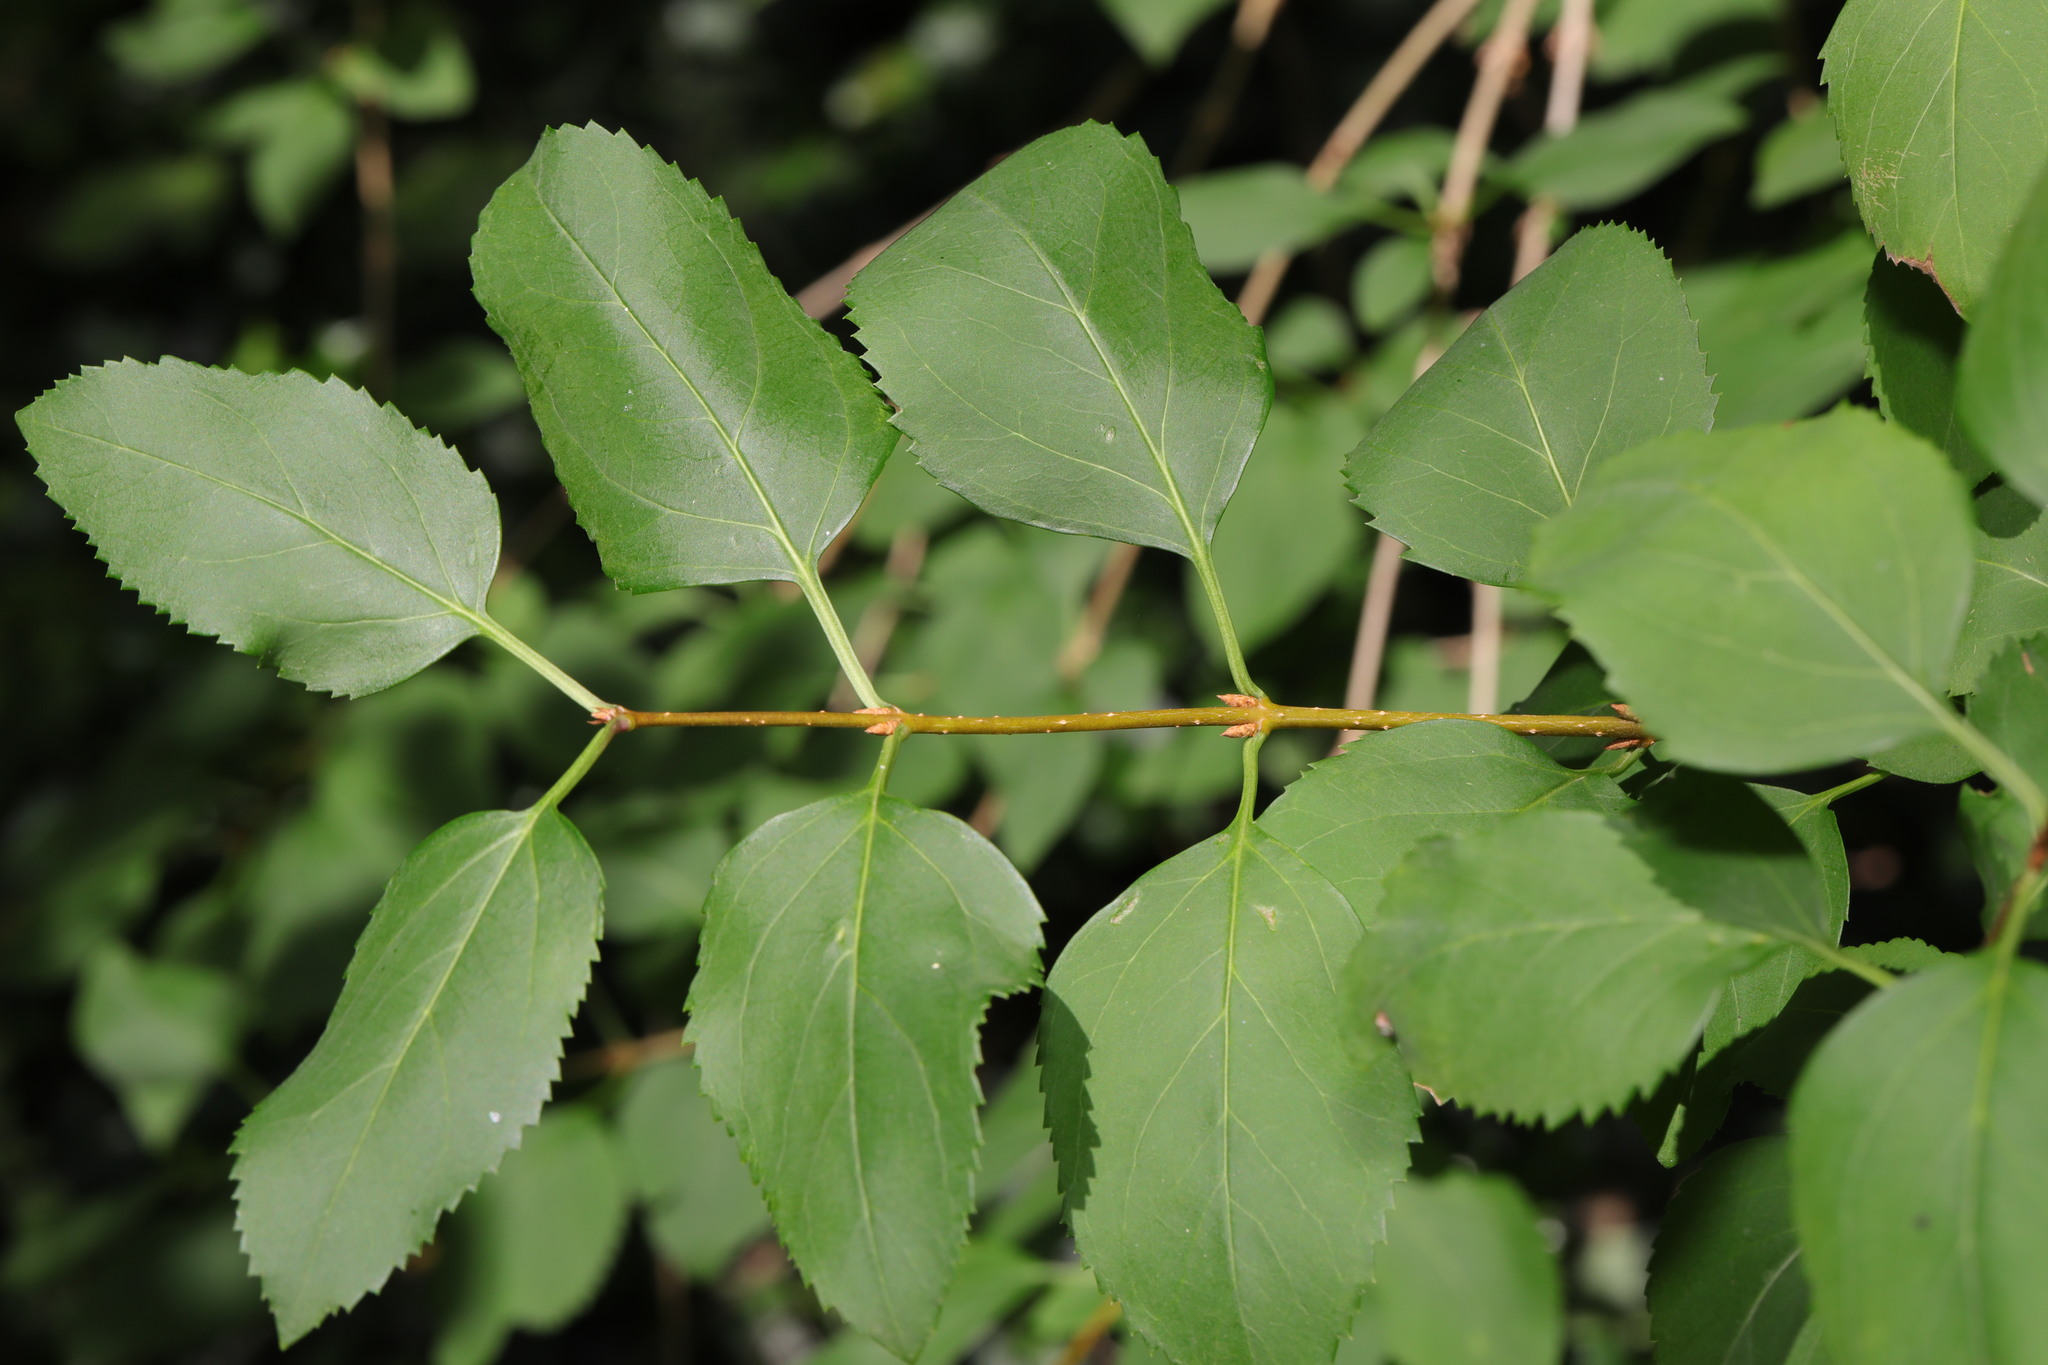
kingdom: Plantae
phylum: Tracheophyta
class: Magnoliopsida
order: Lamiales
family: Oleaceae
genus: Forsythia
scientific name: Forsythia intermedia
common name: Forsythia
